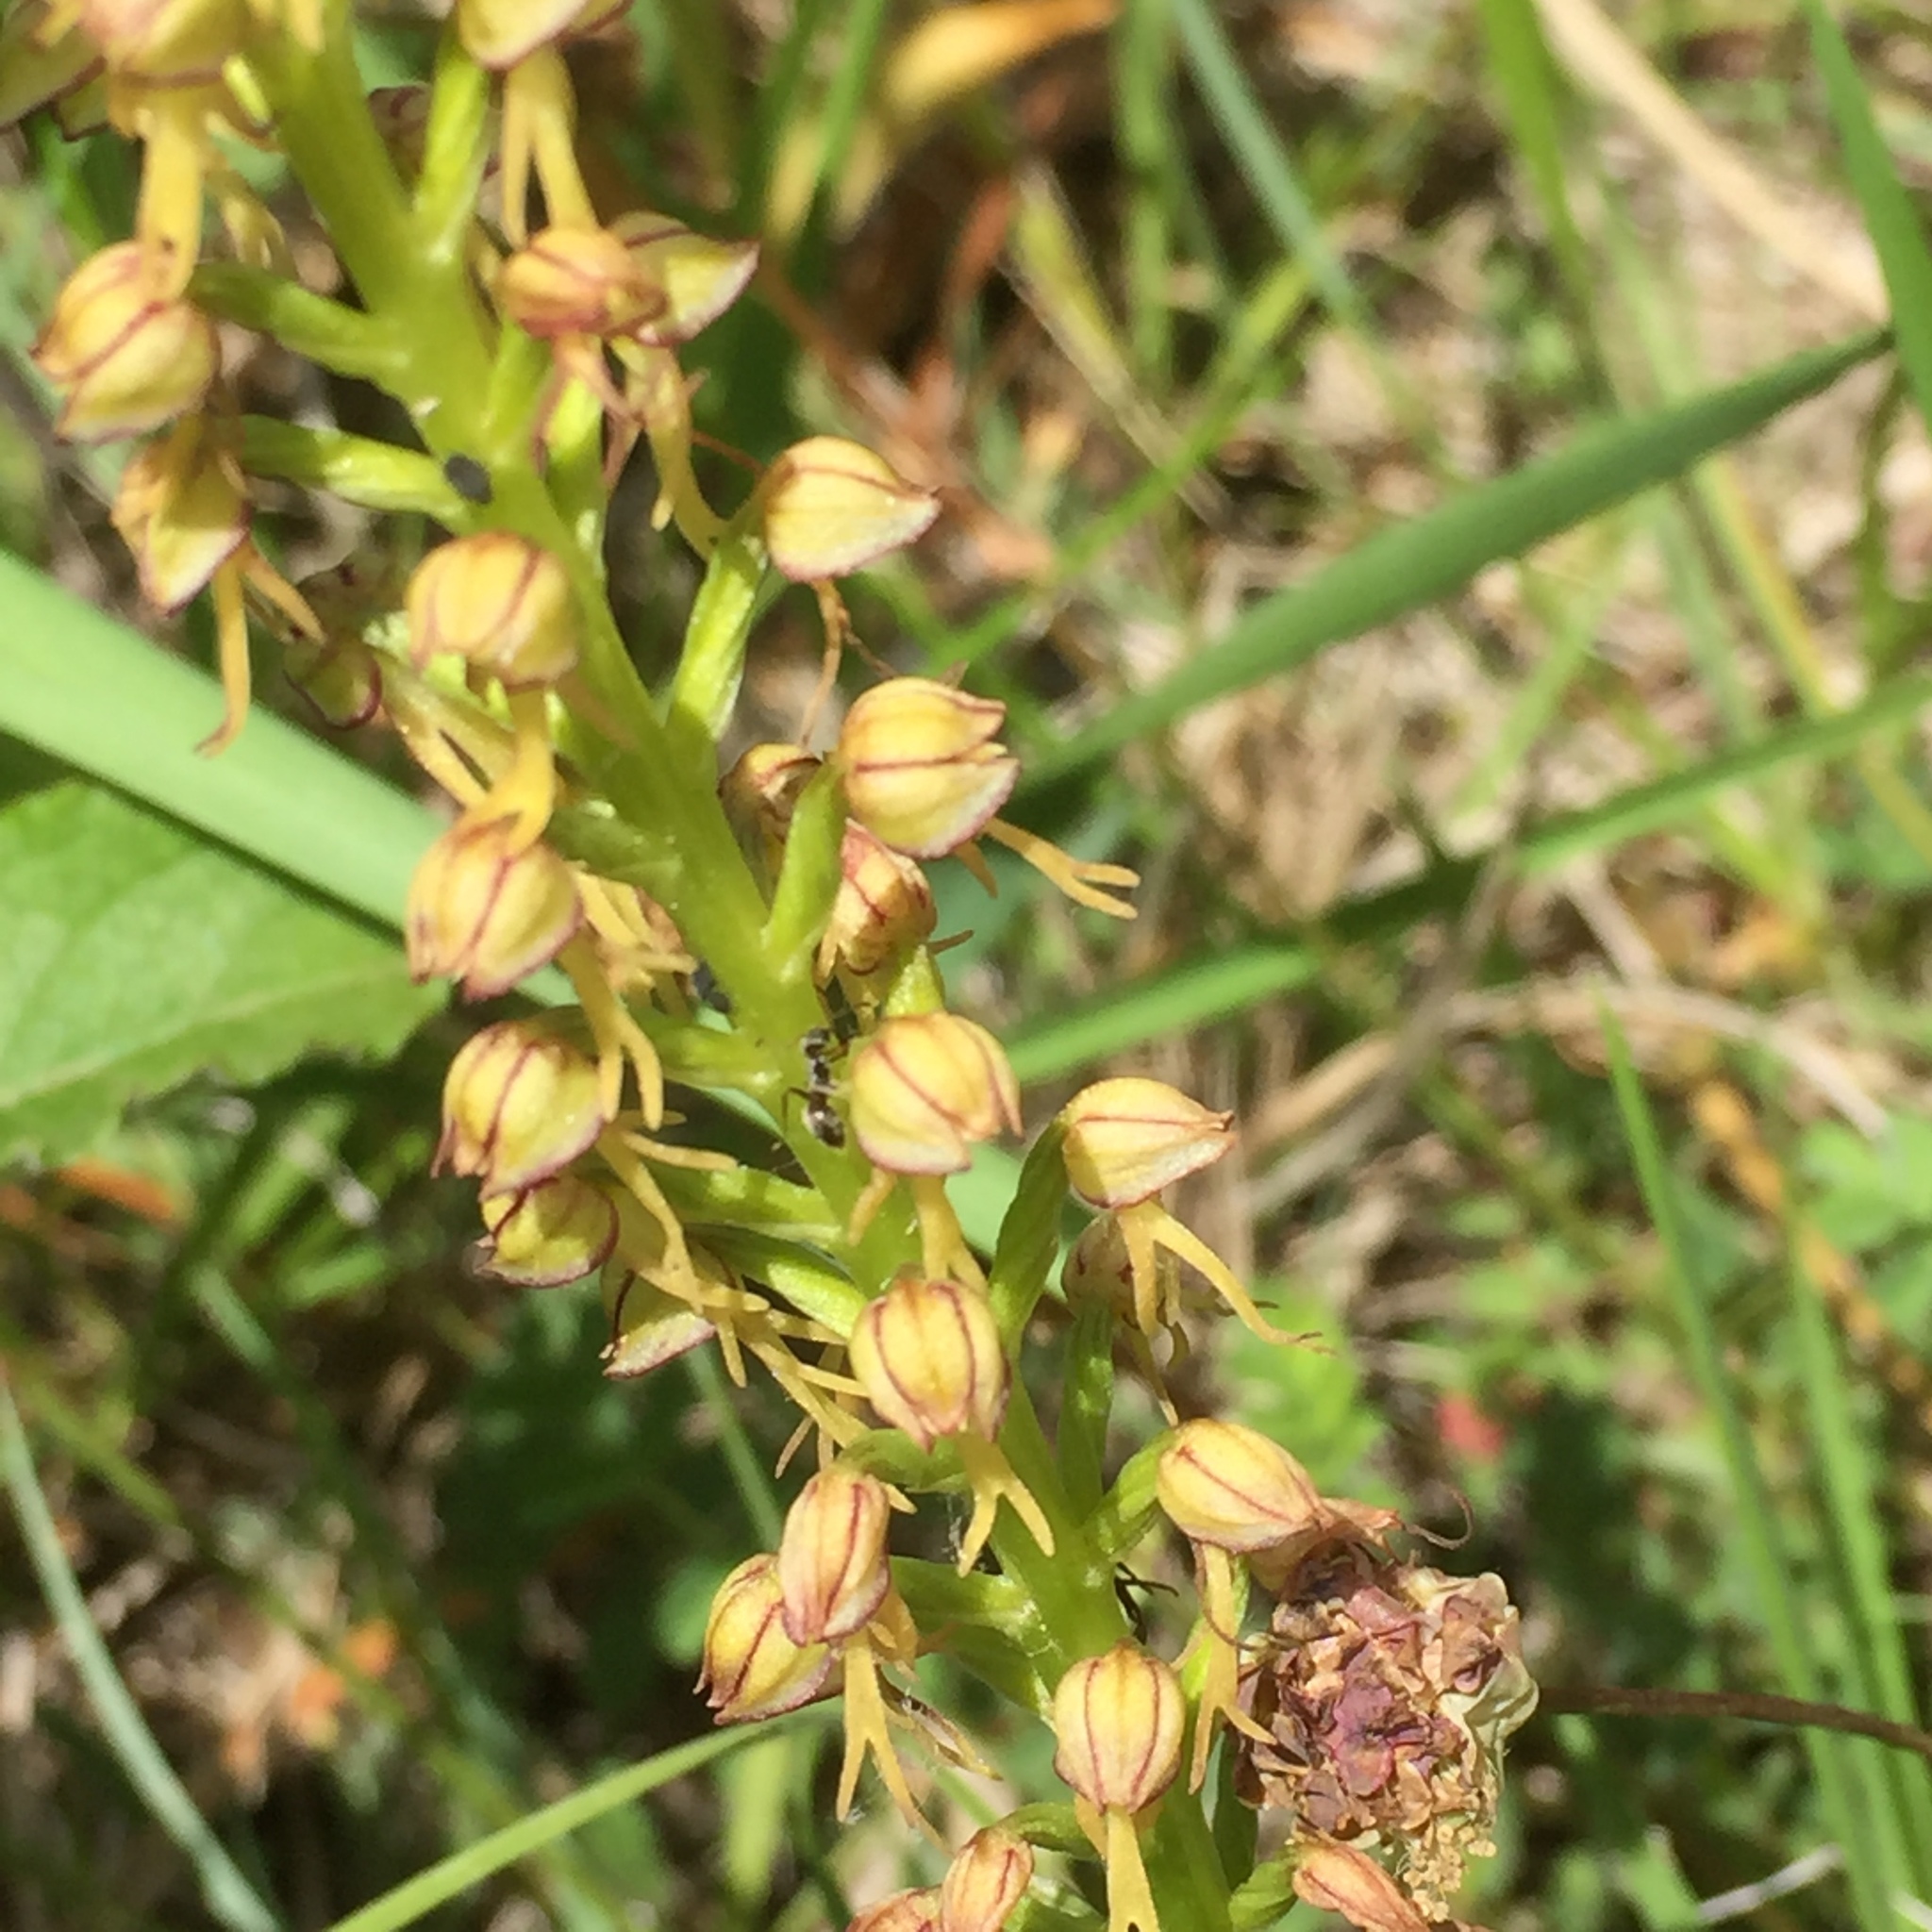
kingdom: Plantae
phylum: Tracheophyta
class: Liliopsida
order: Asparagales
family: Orchidaceae
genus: Orchis
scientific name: Orchis anthropophora
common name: Man orchid
